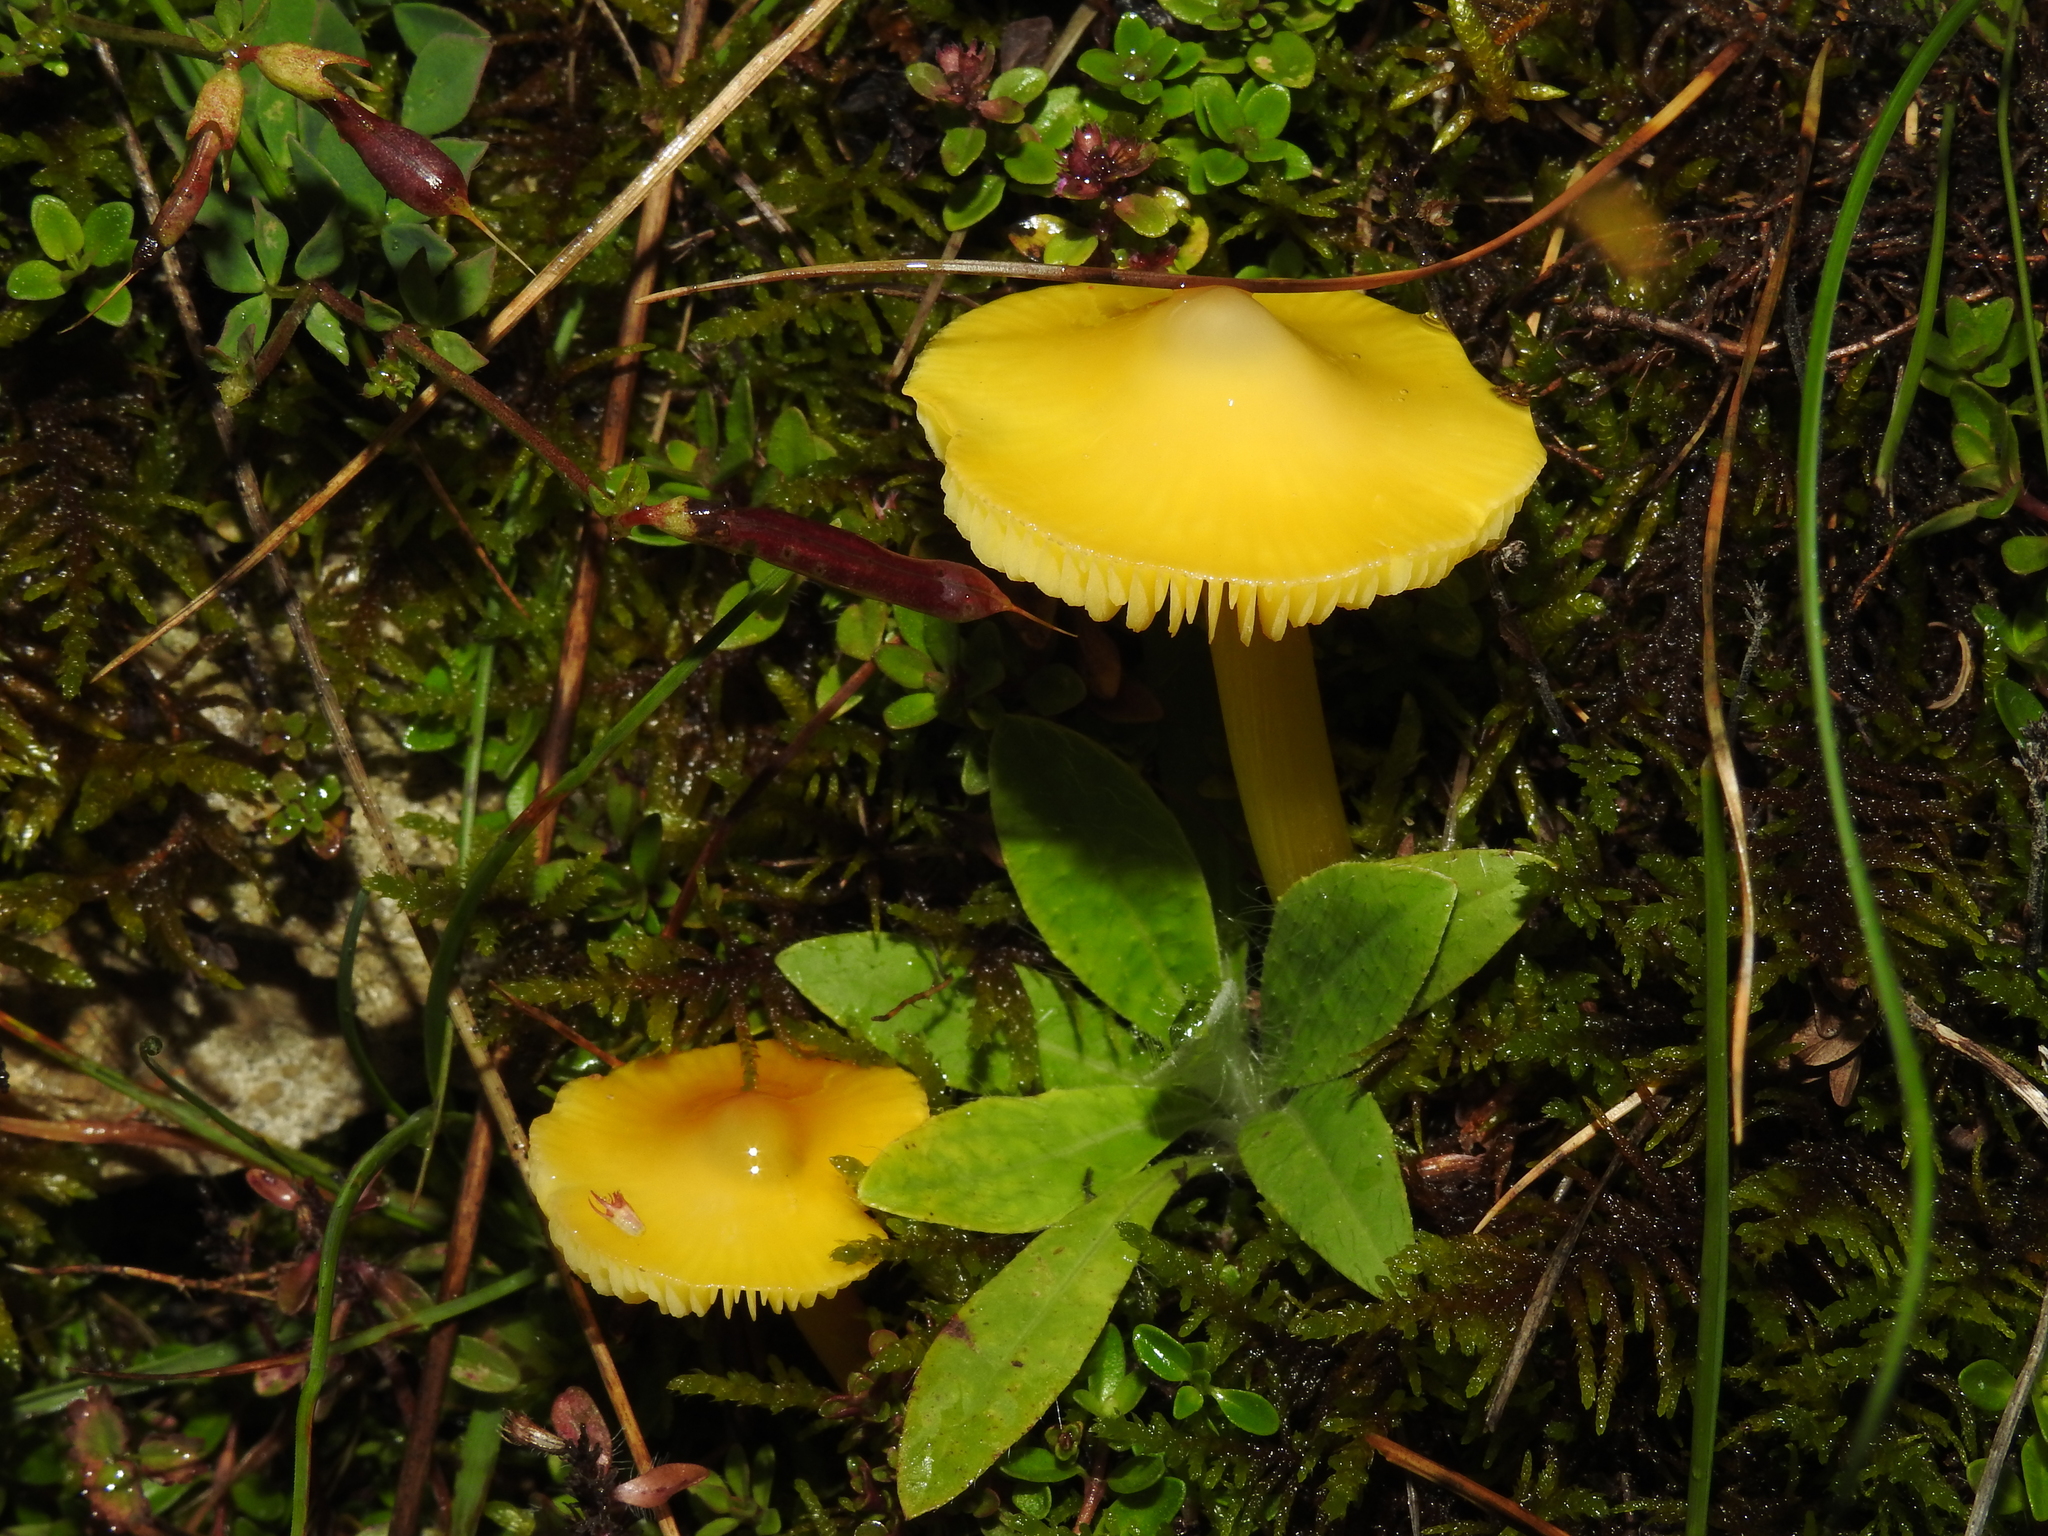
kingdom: Fungi
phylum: Basidiomycota
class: Agaricomycetes
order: Agaricales
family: Hygrophoraceae
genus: Hygrocybe
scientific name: Hygrocybe acutoconica
